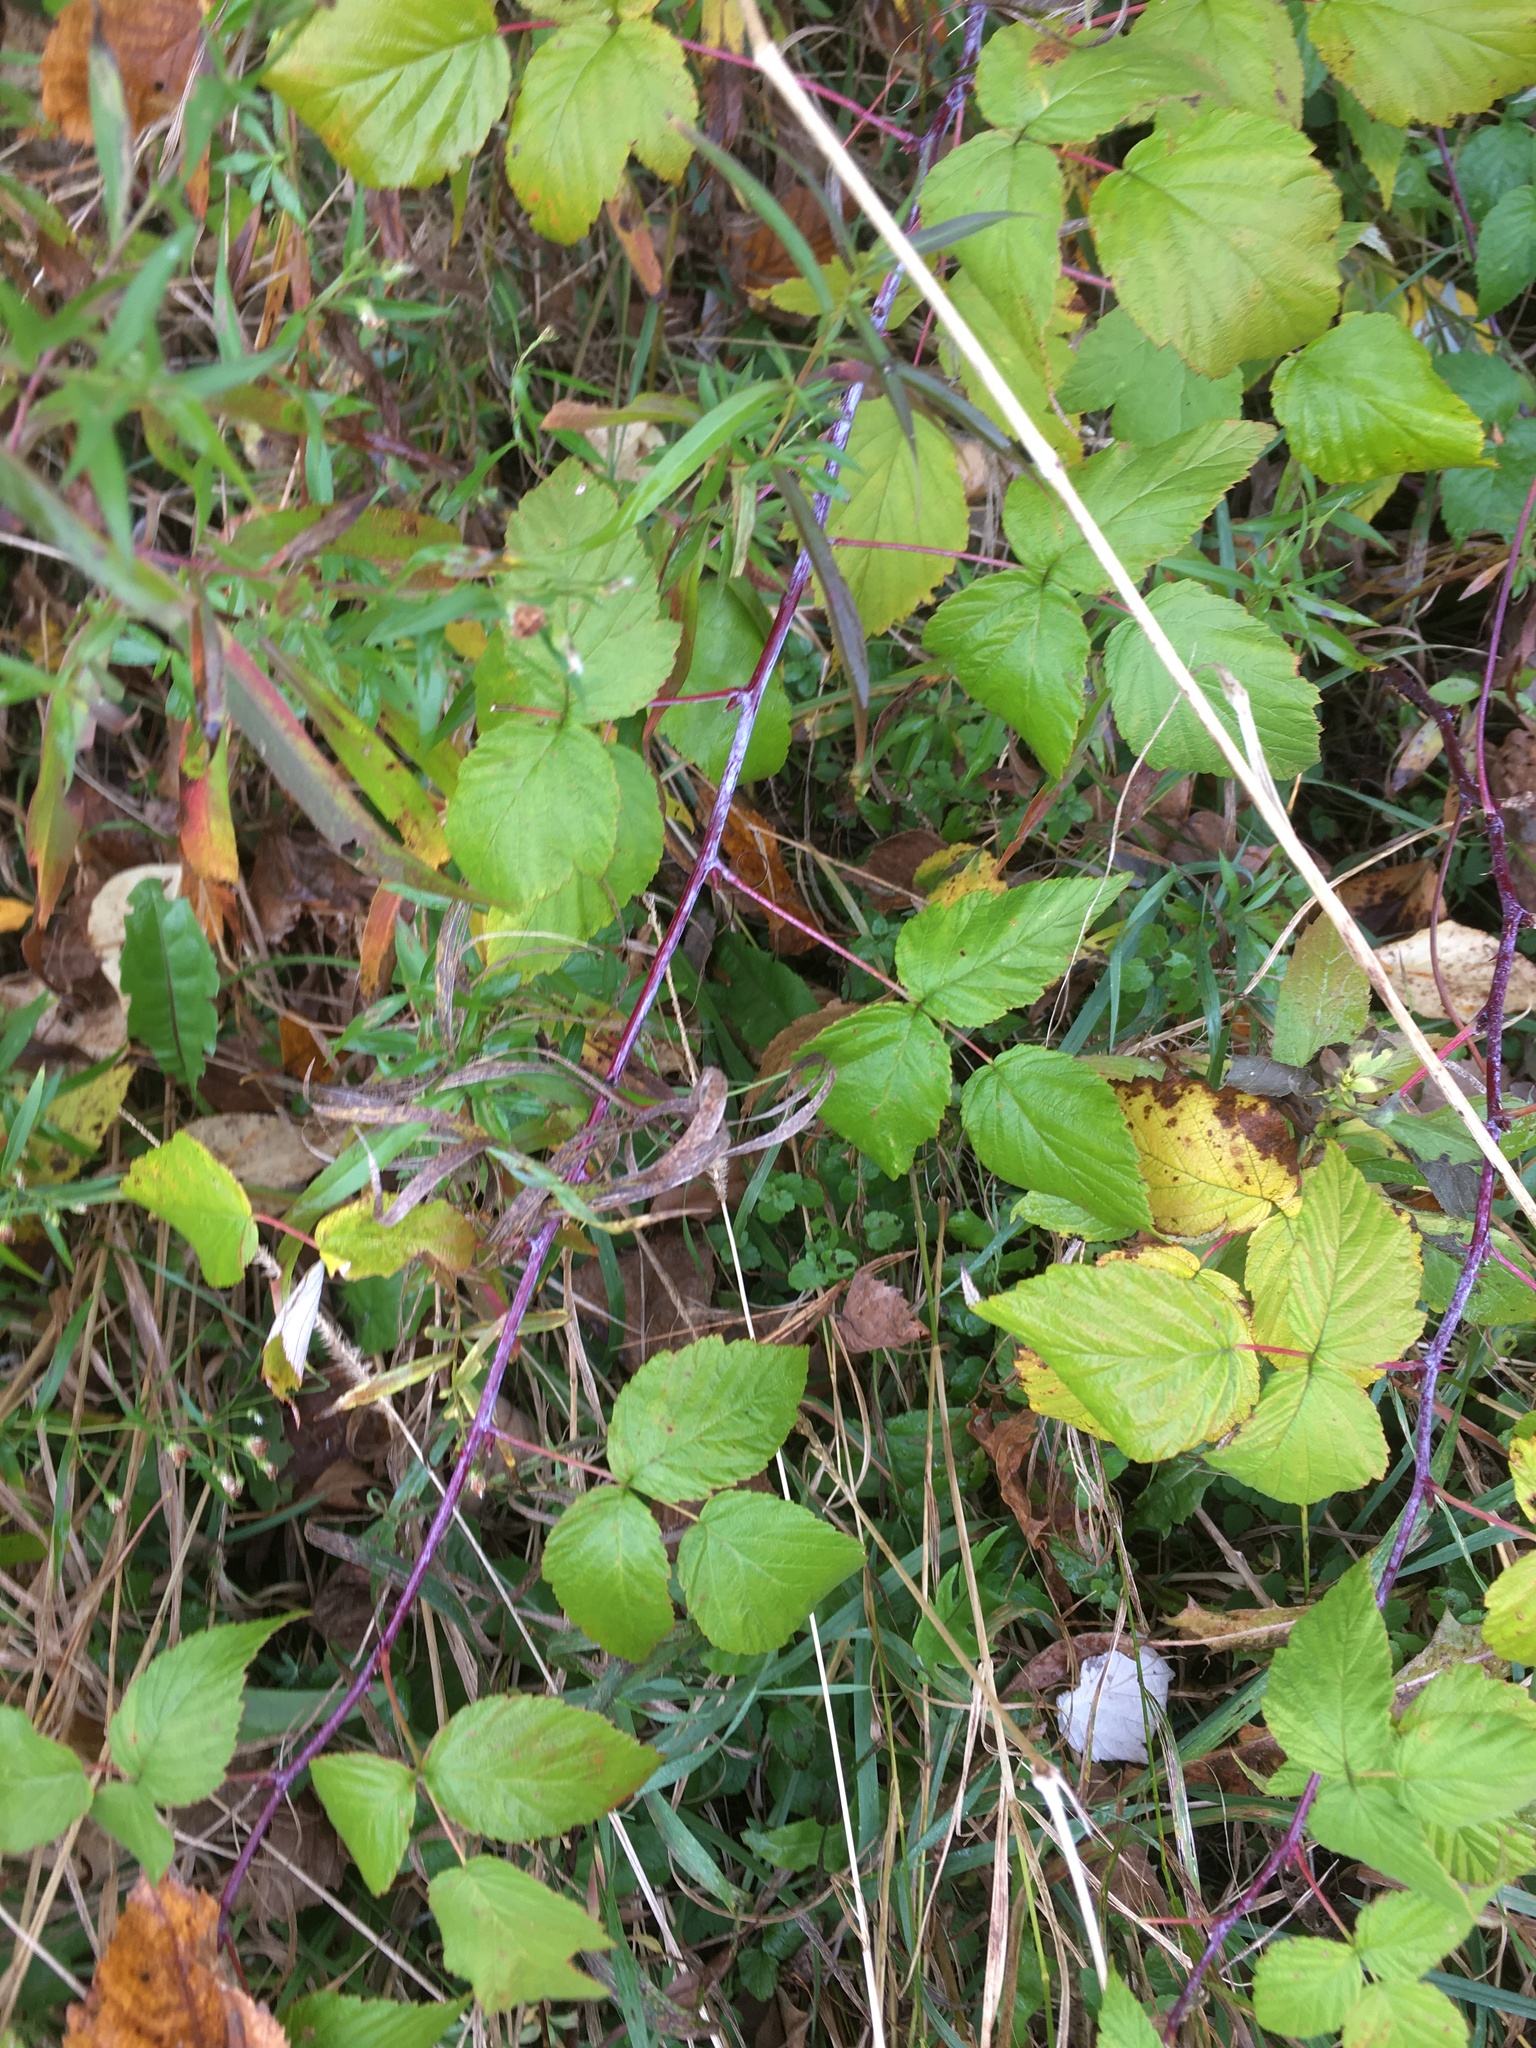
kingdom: Plantae
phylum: Tracheophyta
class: Magnoliopsida
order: Rosales
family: Rosaceae
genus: Rubus
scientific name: Rubus occidentalis
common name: Black raspberry
